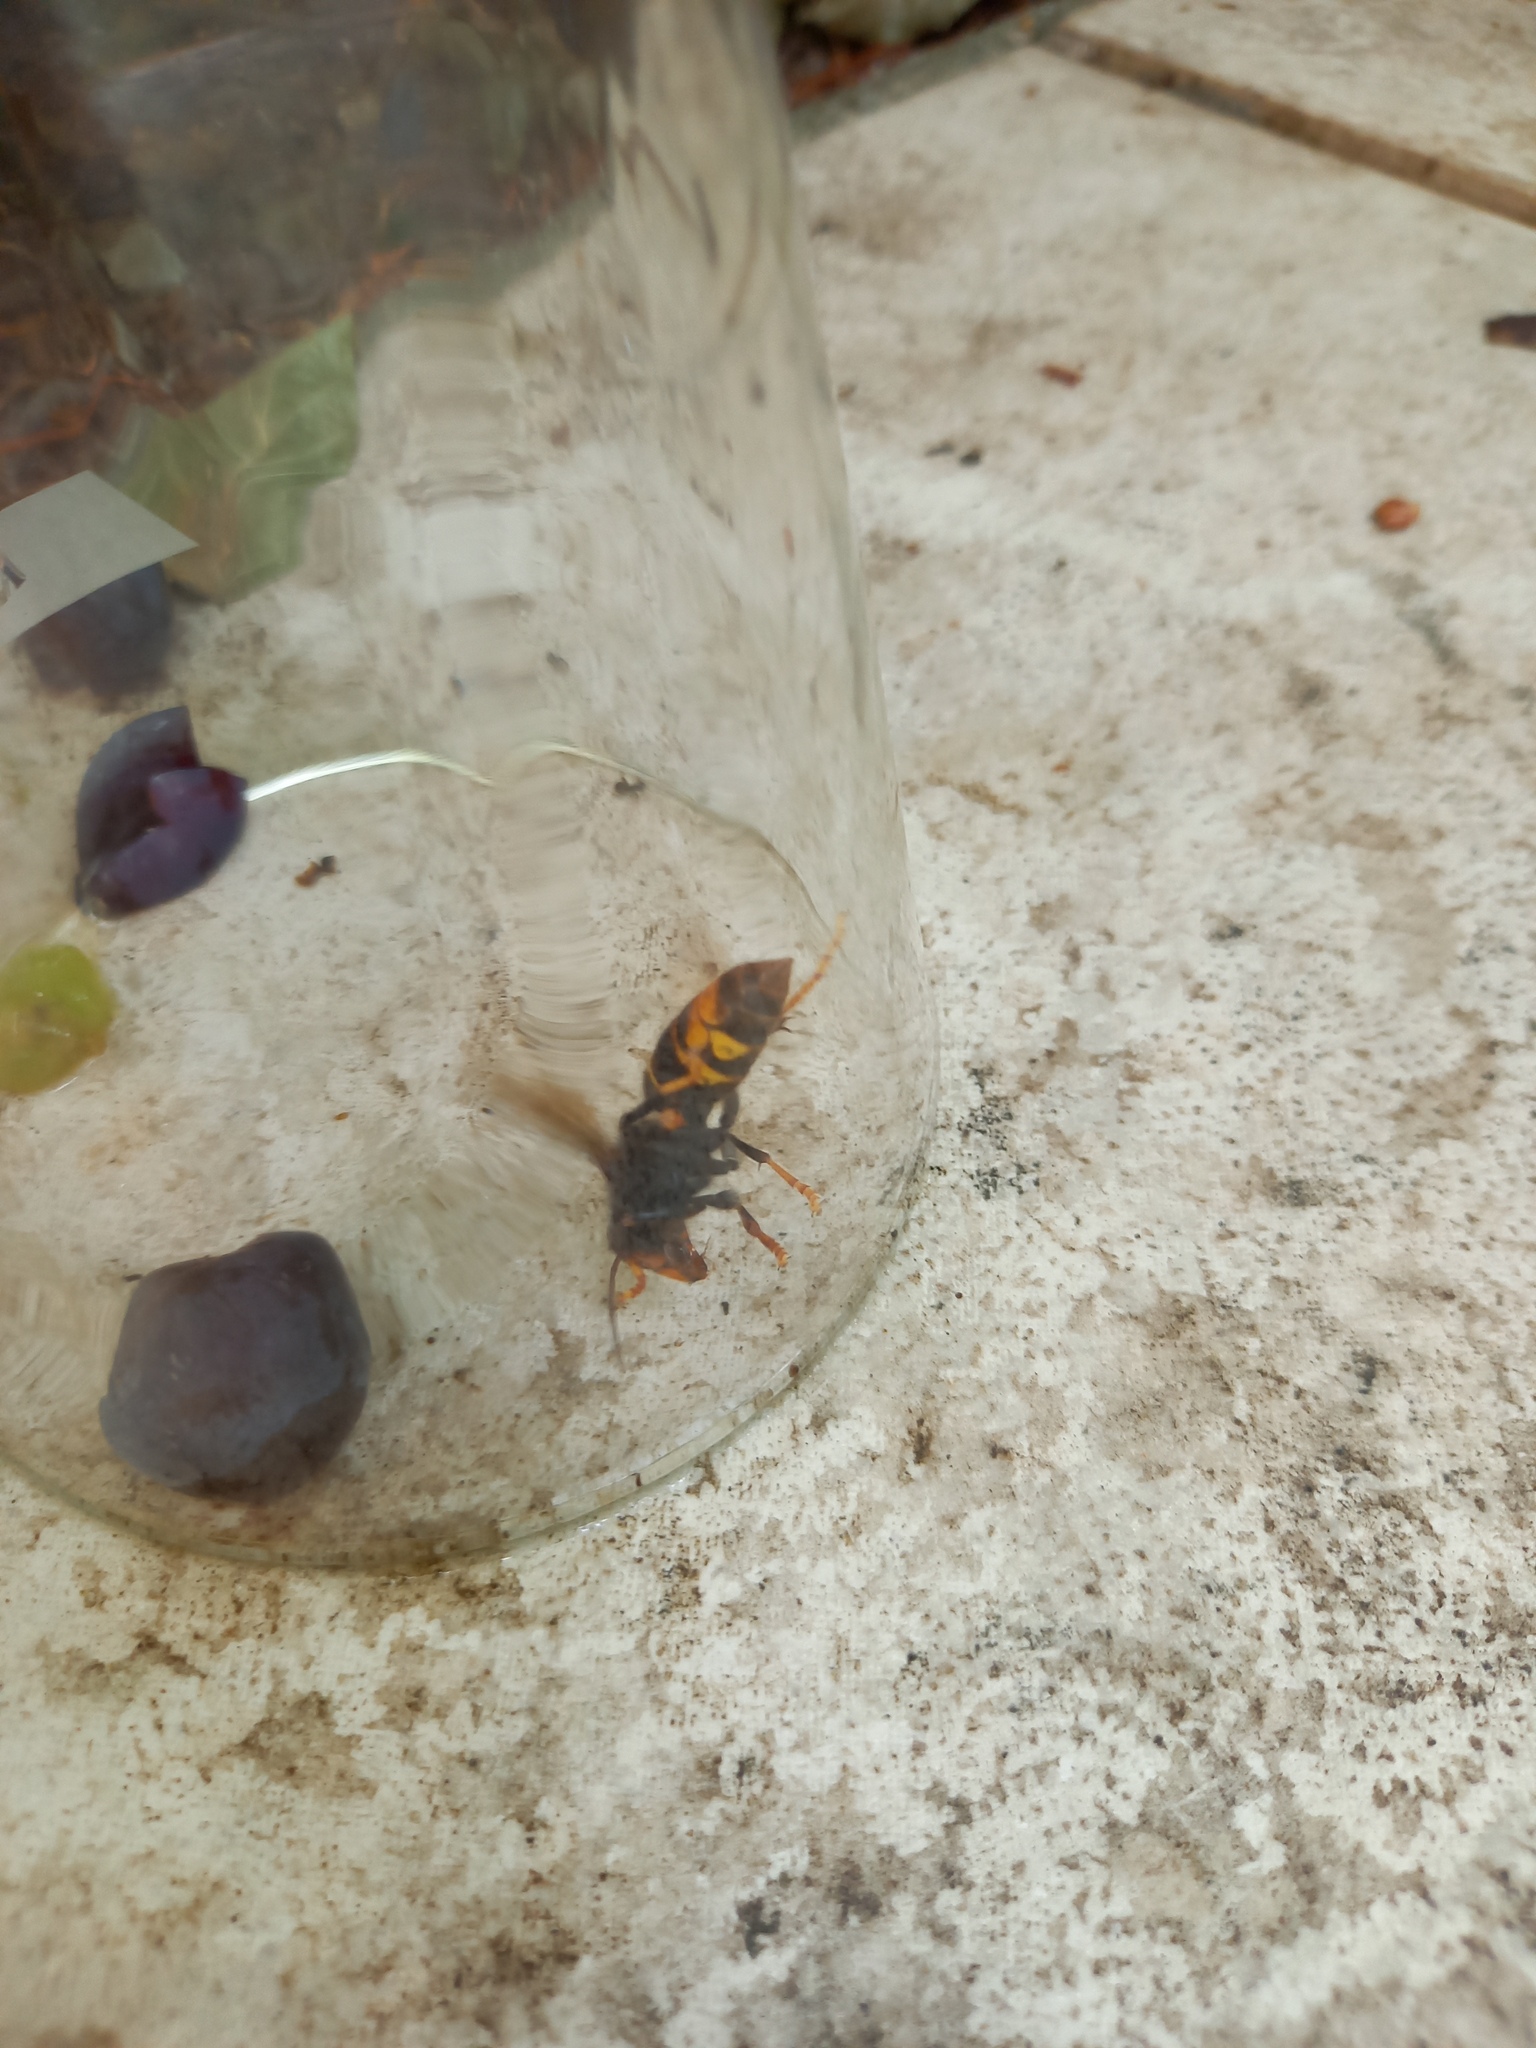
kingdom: Animalia
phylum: Arthropoda
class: Insecta
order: Hymenoptera
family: Vespidae
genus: Vespa
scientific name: Vespa velutina
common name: Asian hornet
